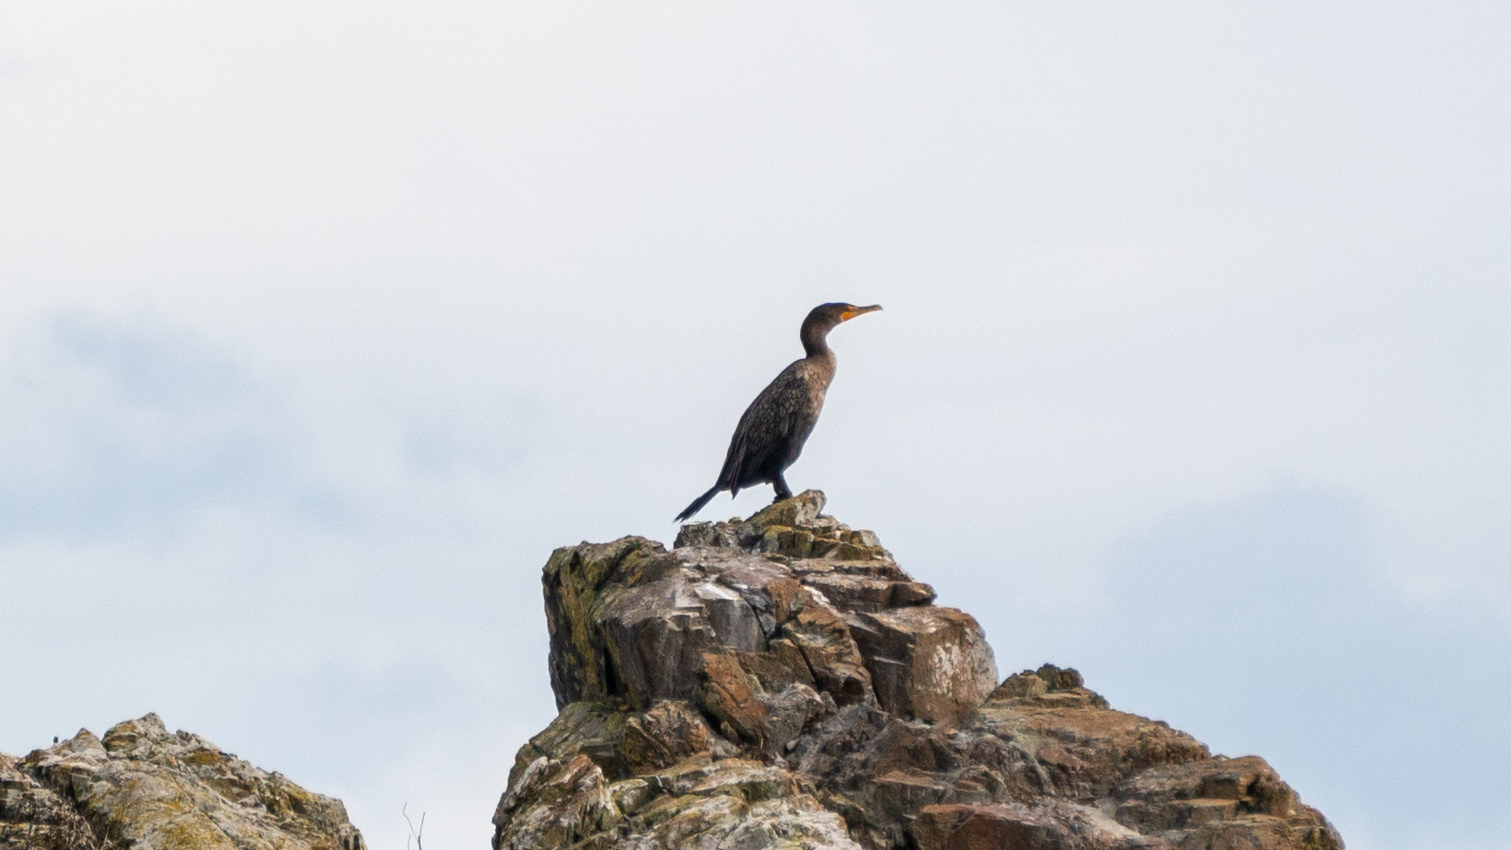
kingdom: Animalia
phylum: Chordata
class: Aves
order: Suliformes
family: Phalacrocoracidae
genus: Phalacrocorax
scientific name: Phalacrocorax auritus
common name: Double-crested cormorant
